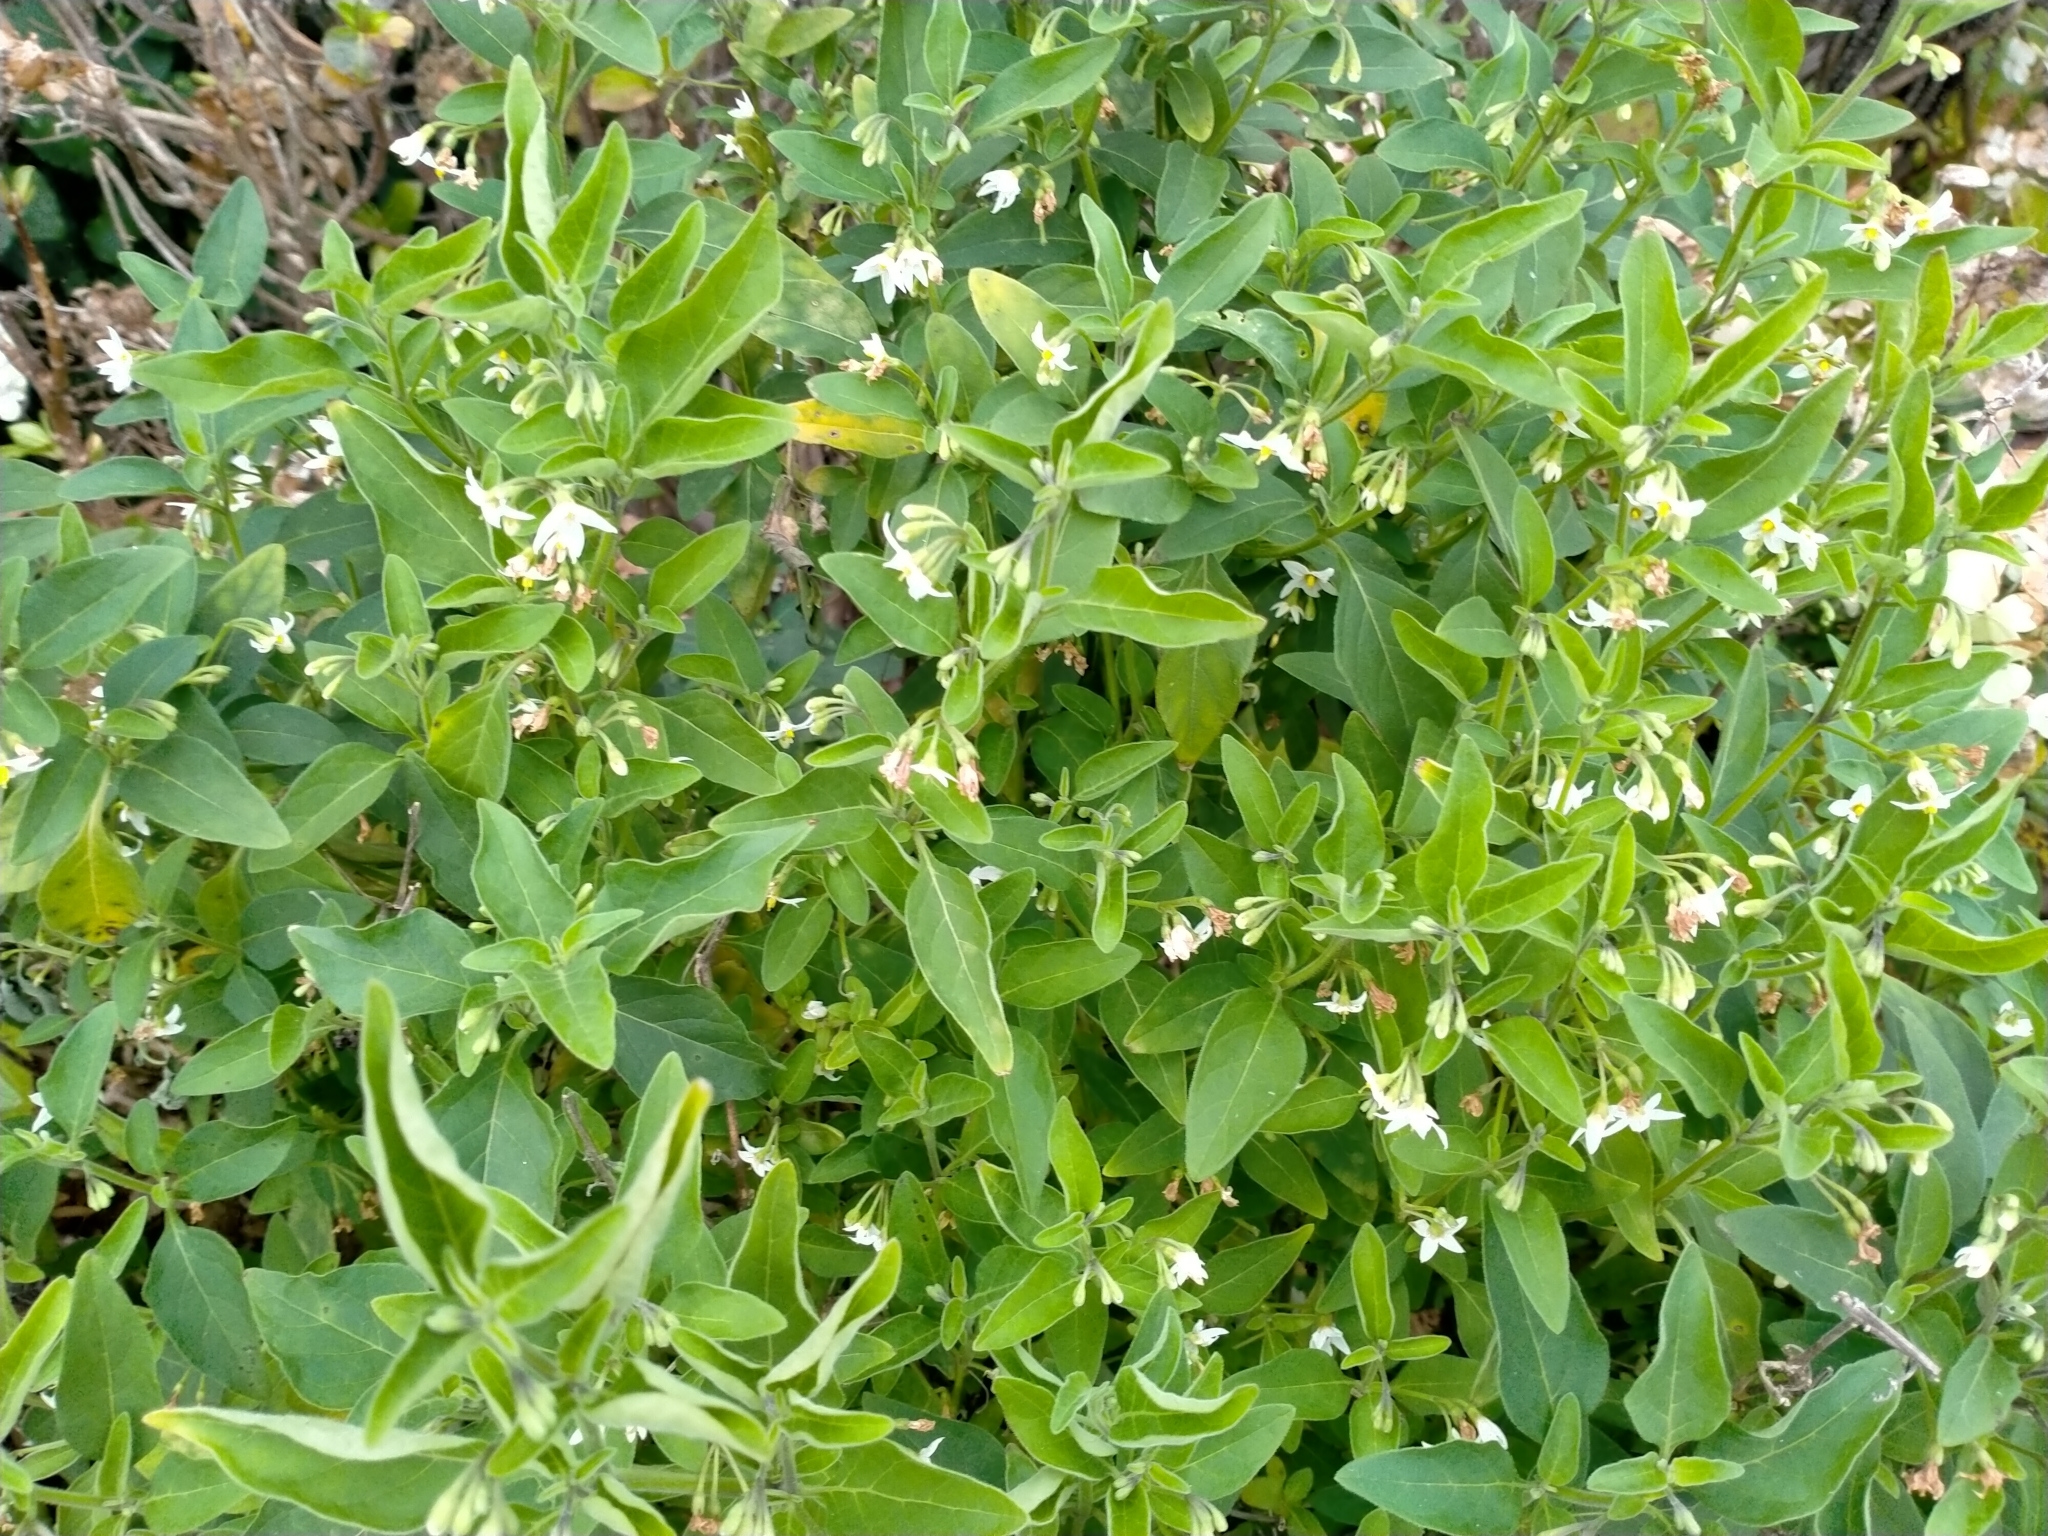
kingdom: Plantae
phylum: Tracheophyta
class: Magnoliopsida
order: Solanales
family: Solanaceae
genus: Solanum
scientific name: Solanum chenopodioides
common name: Tall nightshade
